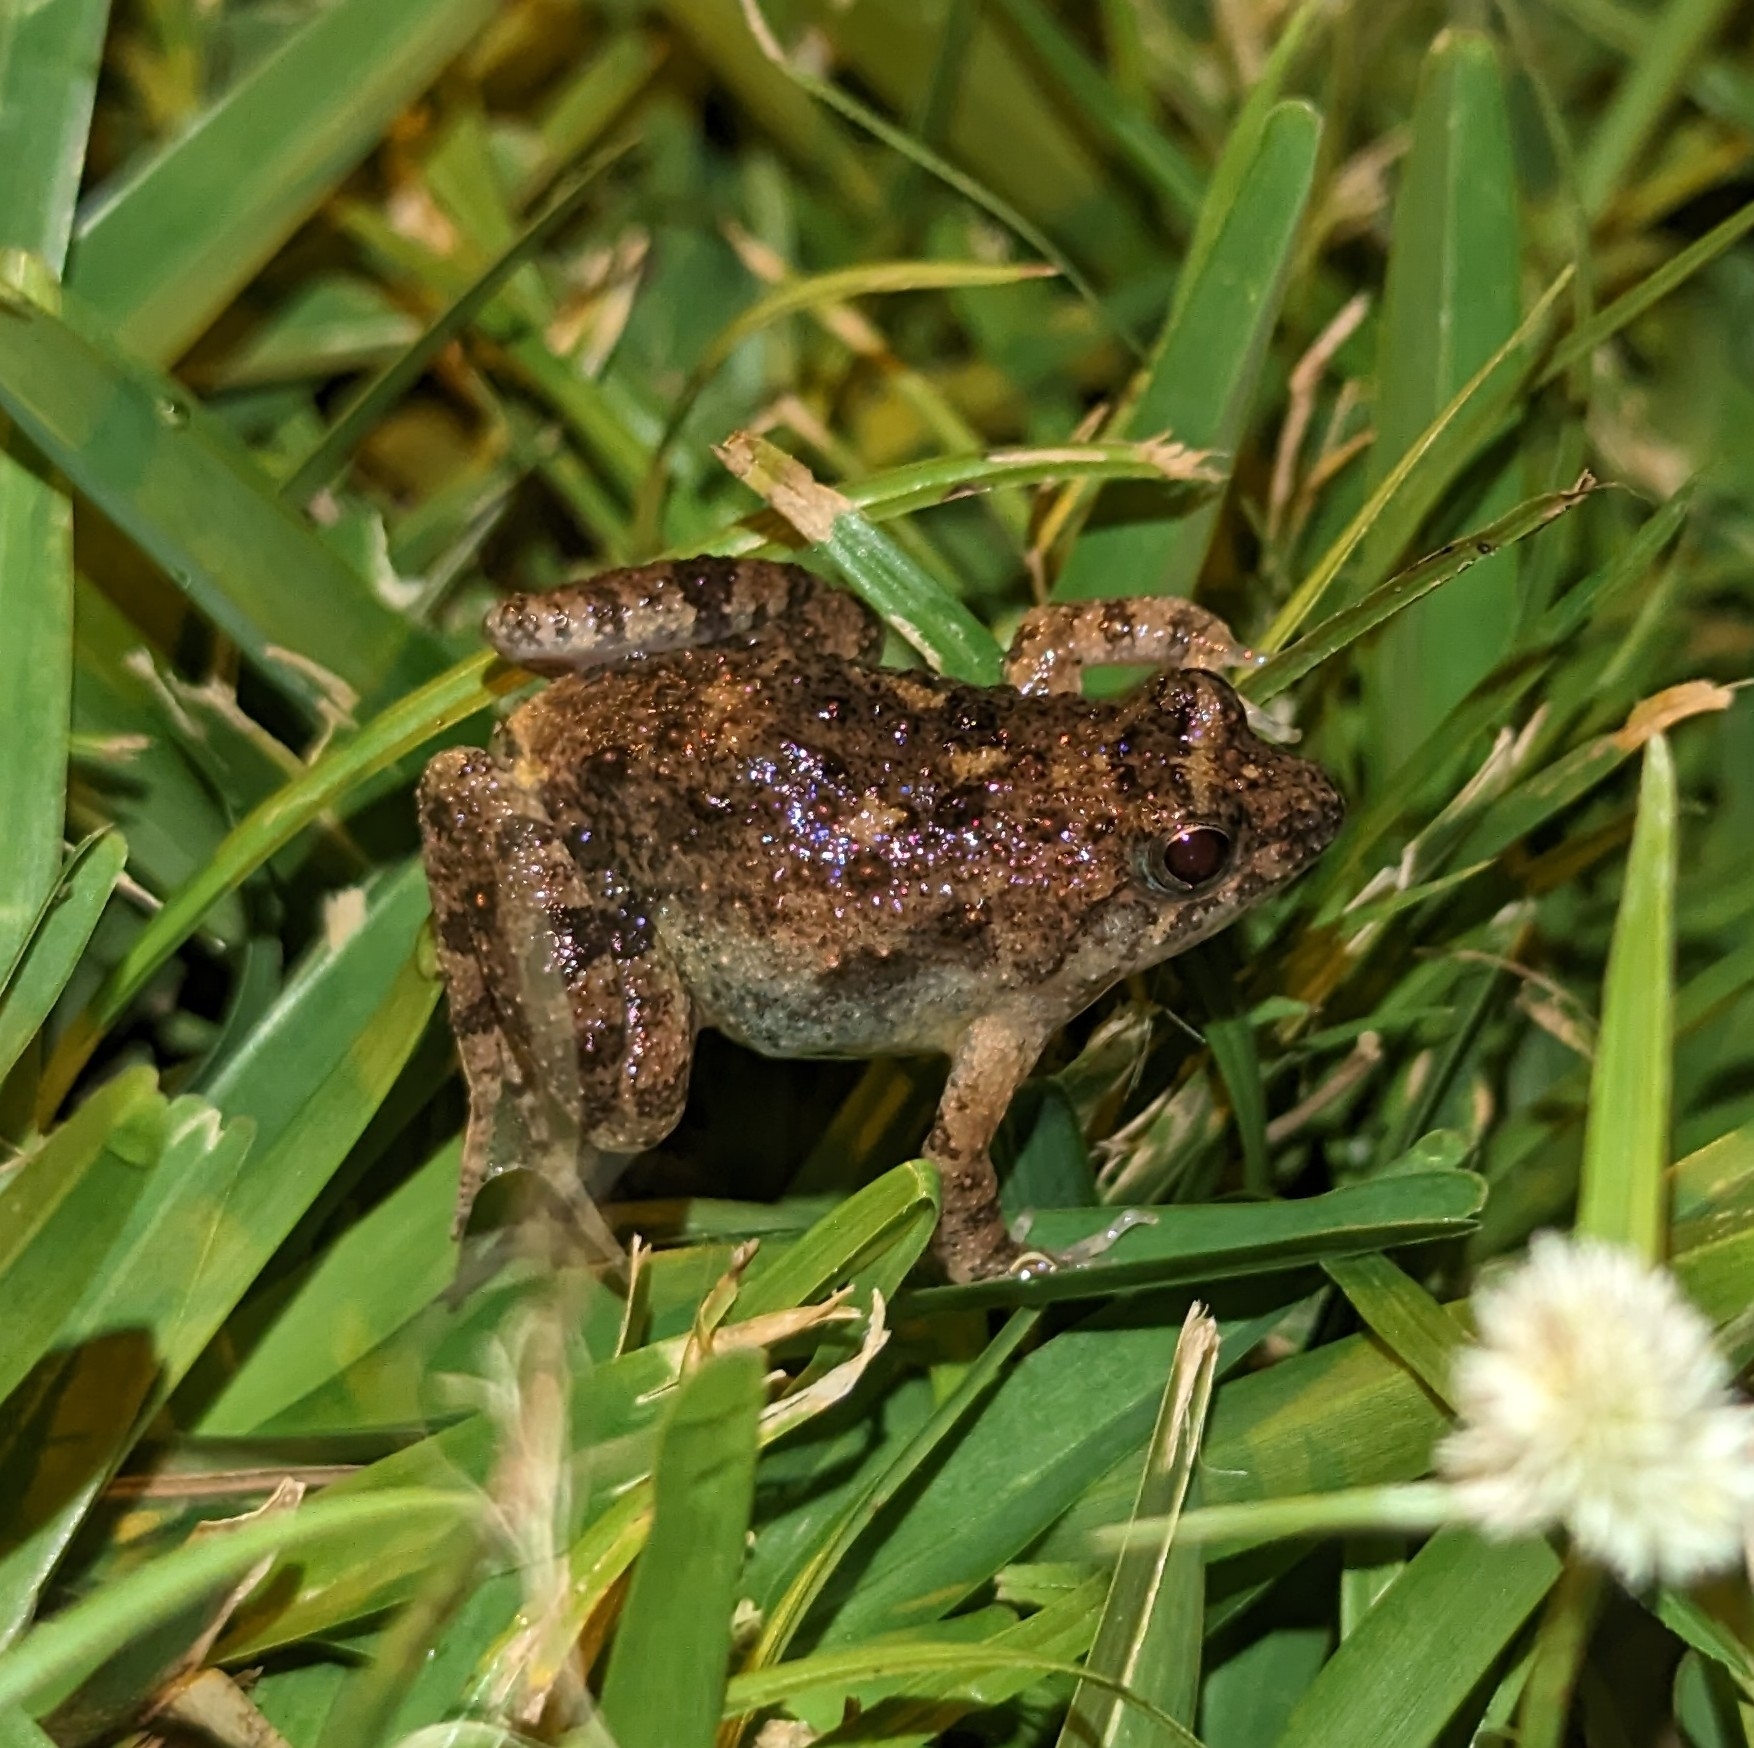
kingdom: Animalia
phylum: Chordata
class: Amphibia
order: Anura
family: Phrynobatrachidae
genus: Phrynobatrachus
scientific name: Phrynobatrachus natalensis
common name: Snoring puddle frog
